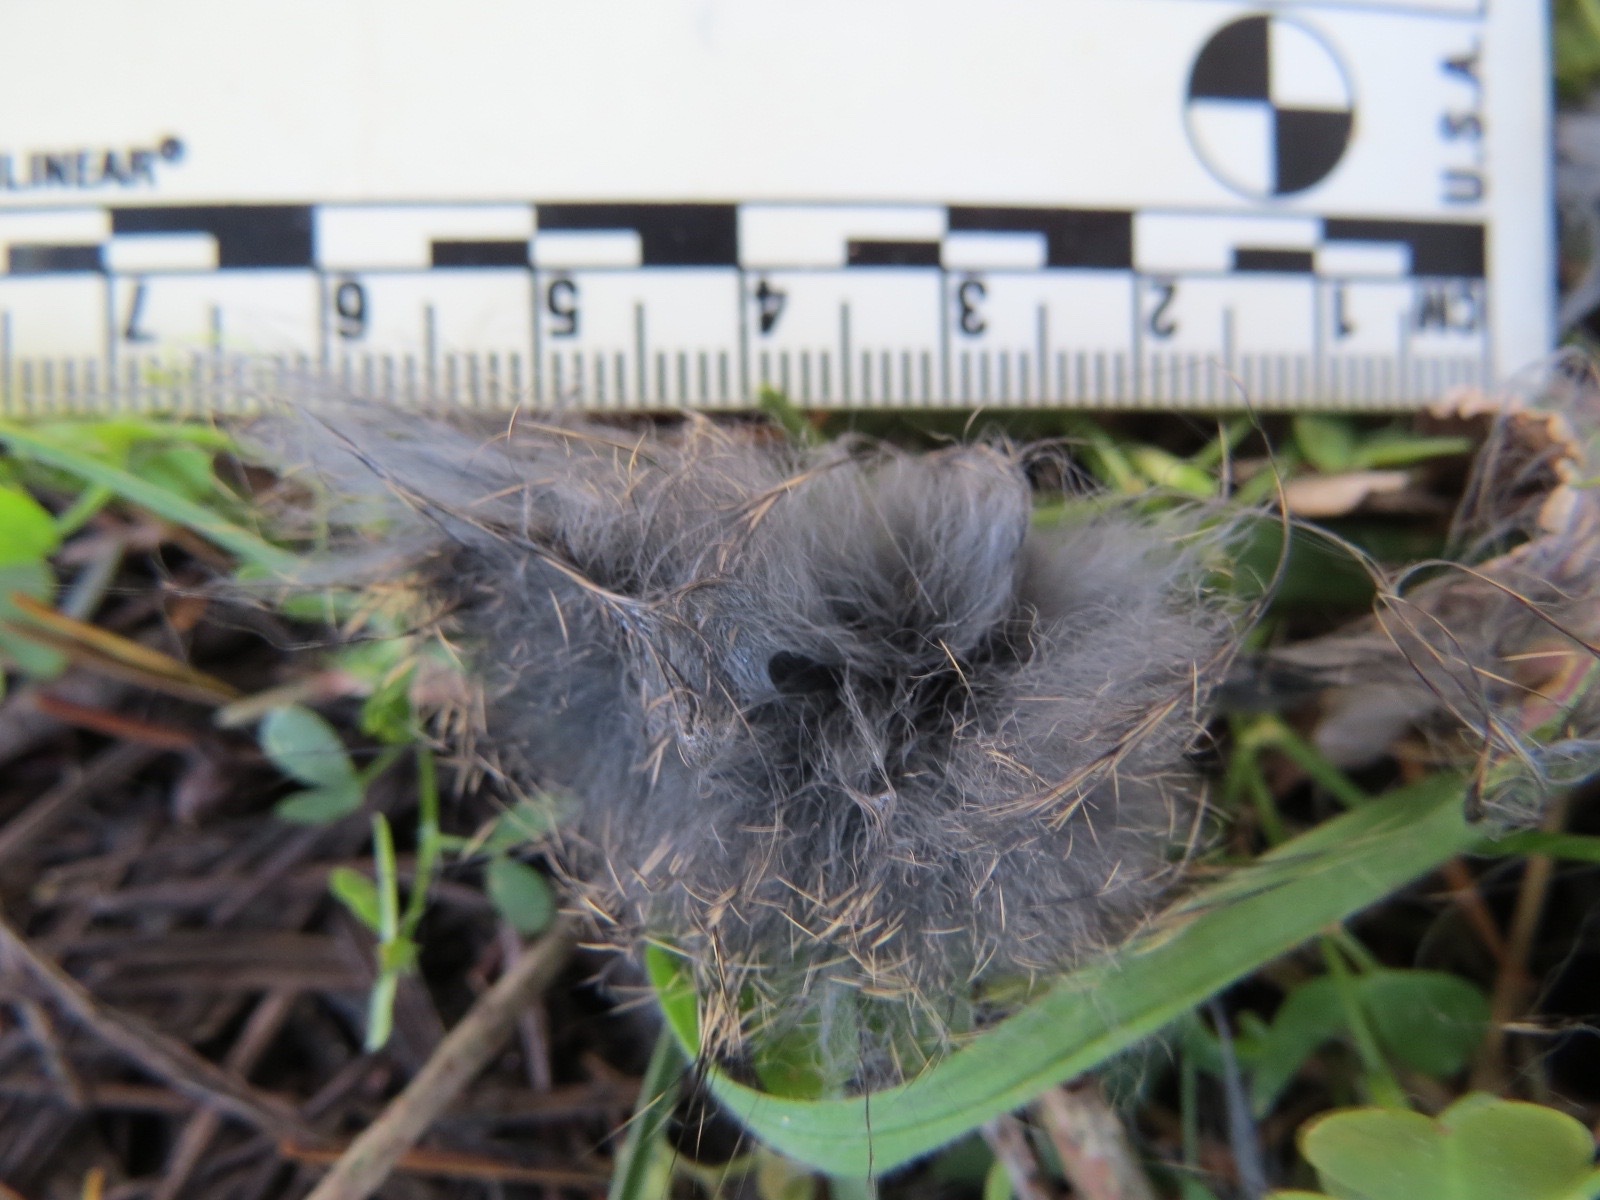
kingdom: Animalia
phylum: Chordata
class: Mammalia
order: Lagomorpha
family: Leporidae
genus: Sylvilagus
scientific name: Sylvilagus bachmani
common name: Brush rabbit
